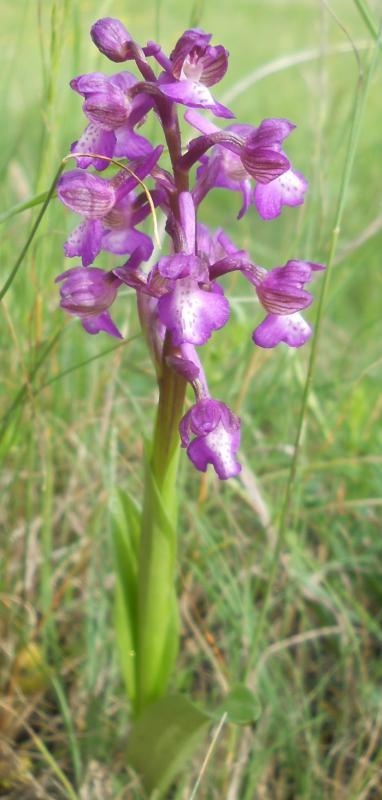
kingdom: Plantae
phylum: Tracheophyta
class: Liliopsida
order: Asparagales
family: Orchidaceae
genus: Anacamptis
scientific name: Anacamptis morio
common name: Green-winged orchid
